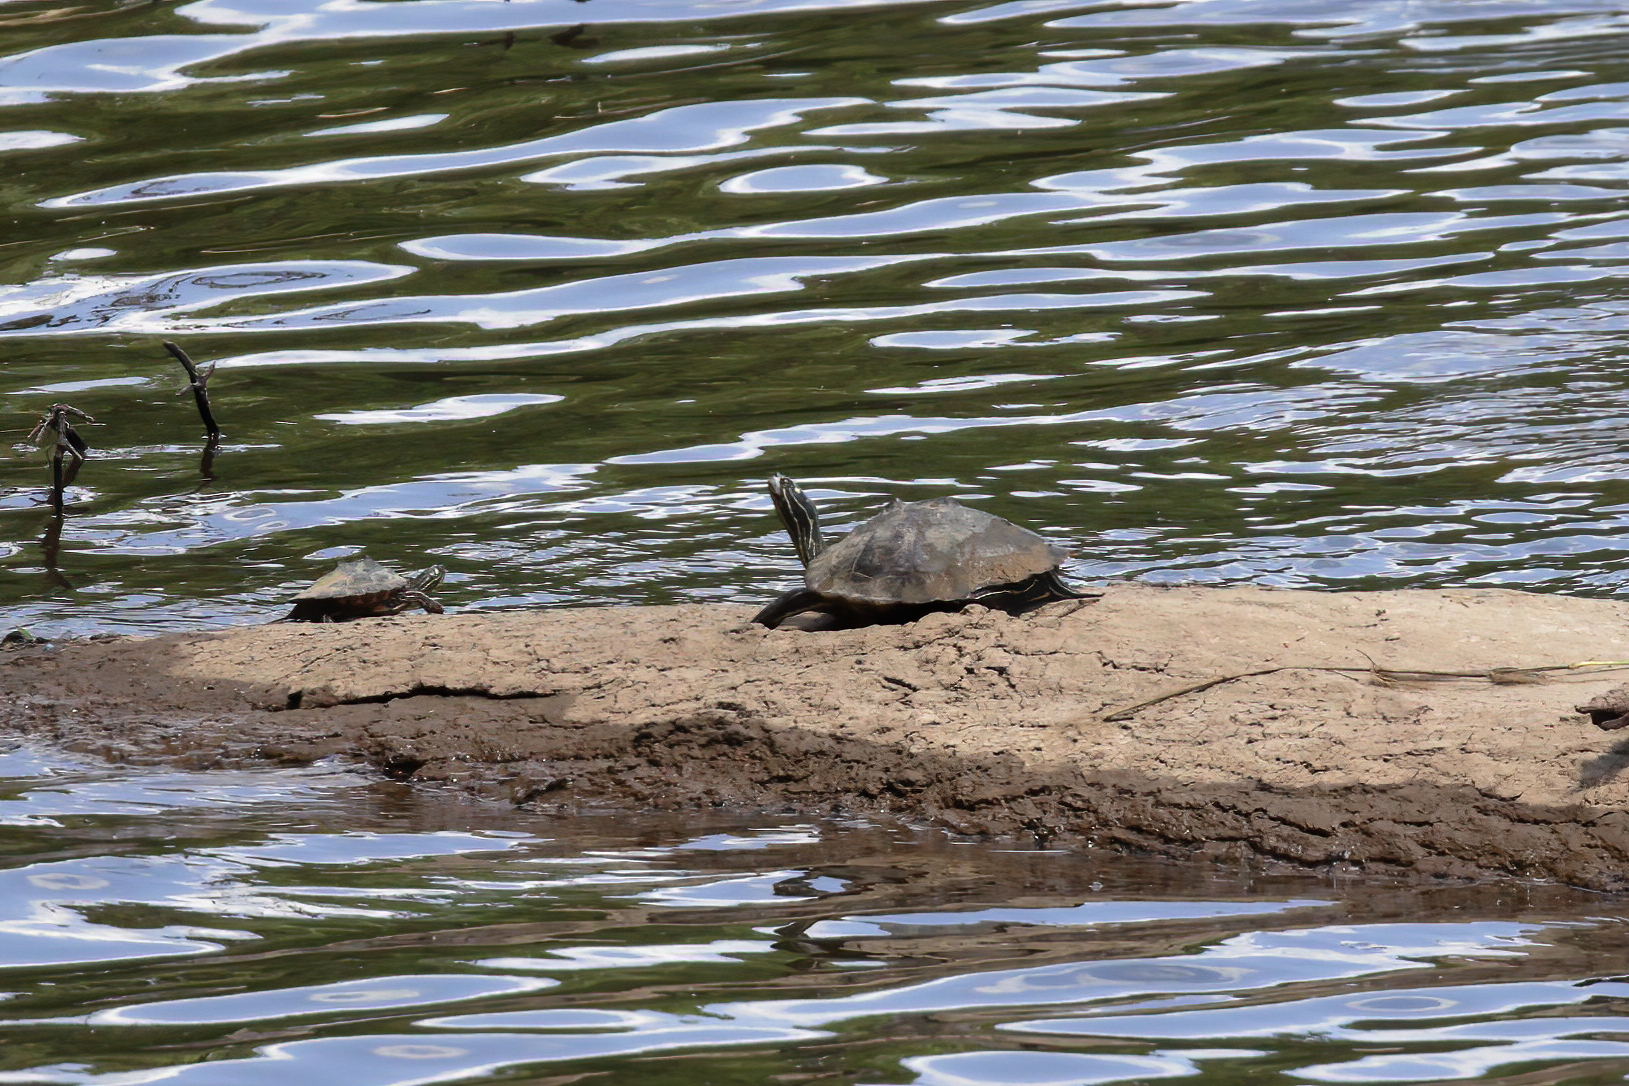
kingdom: Animalia
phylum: Chordata
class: Testudines
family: Emydidae
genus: Graptemys
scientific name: Graptemys oculifera
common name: Ringed map turtle
